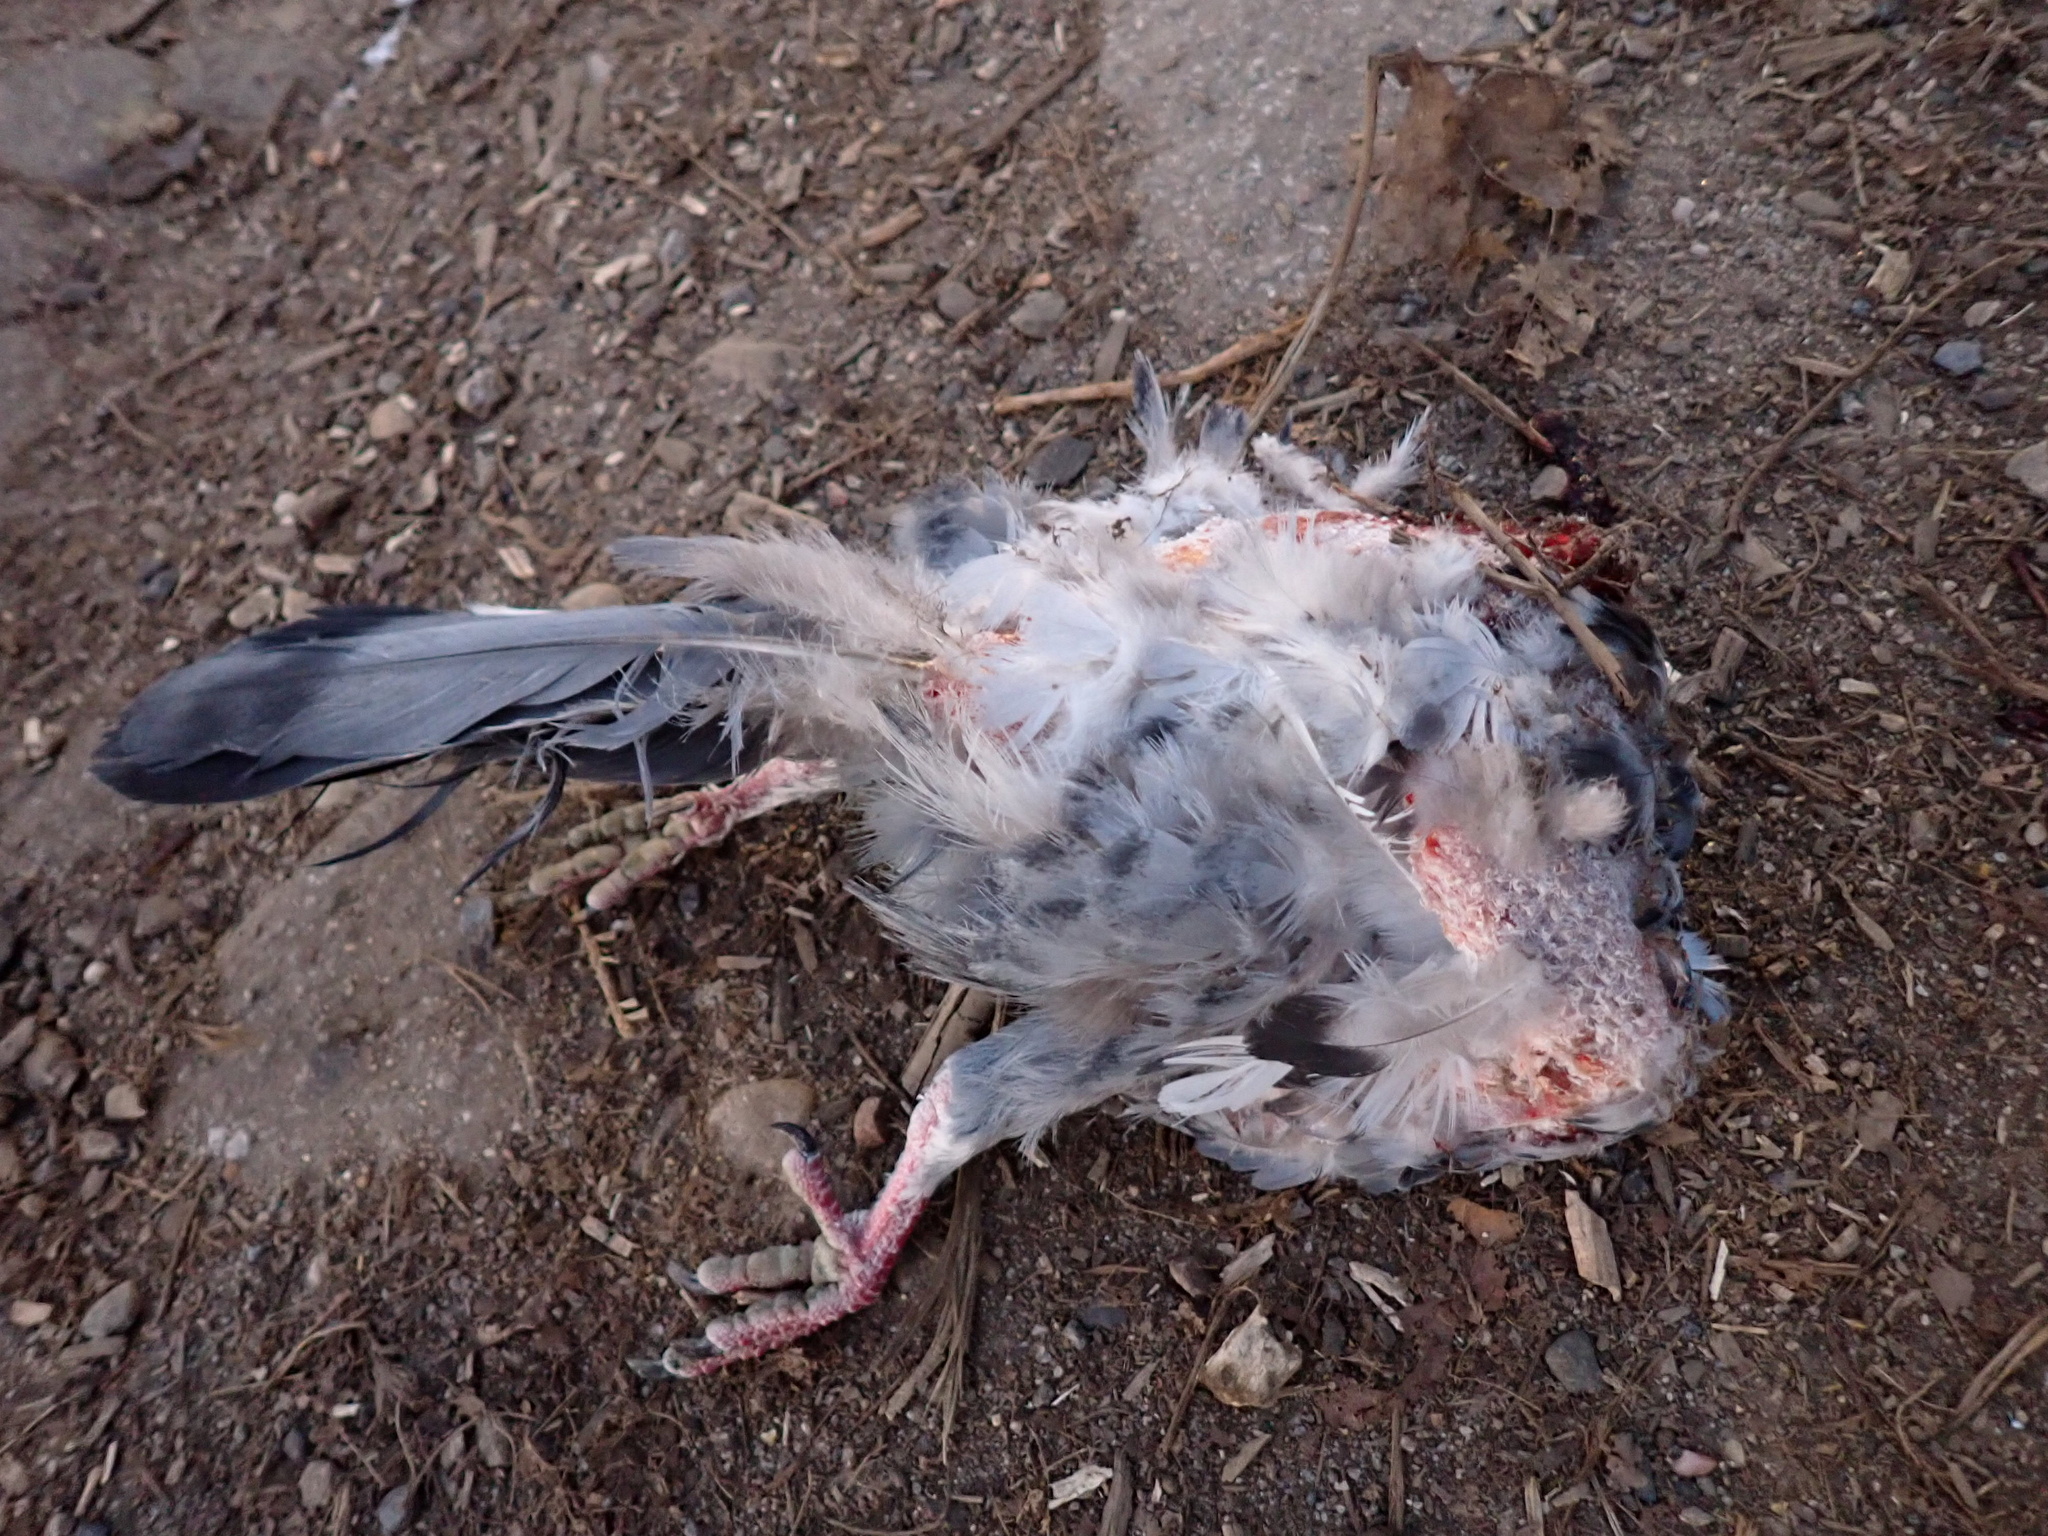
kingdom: Animalia
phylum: Chordata
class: Aves
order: Columbiformes
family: Columbidae
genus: Columba
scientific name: Columba livia
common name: Rock pigeon
